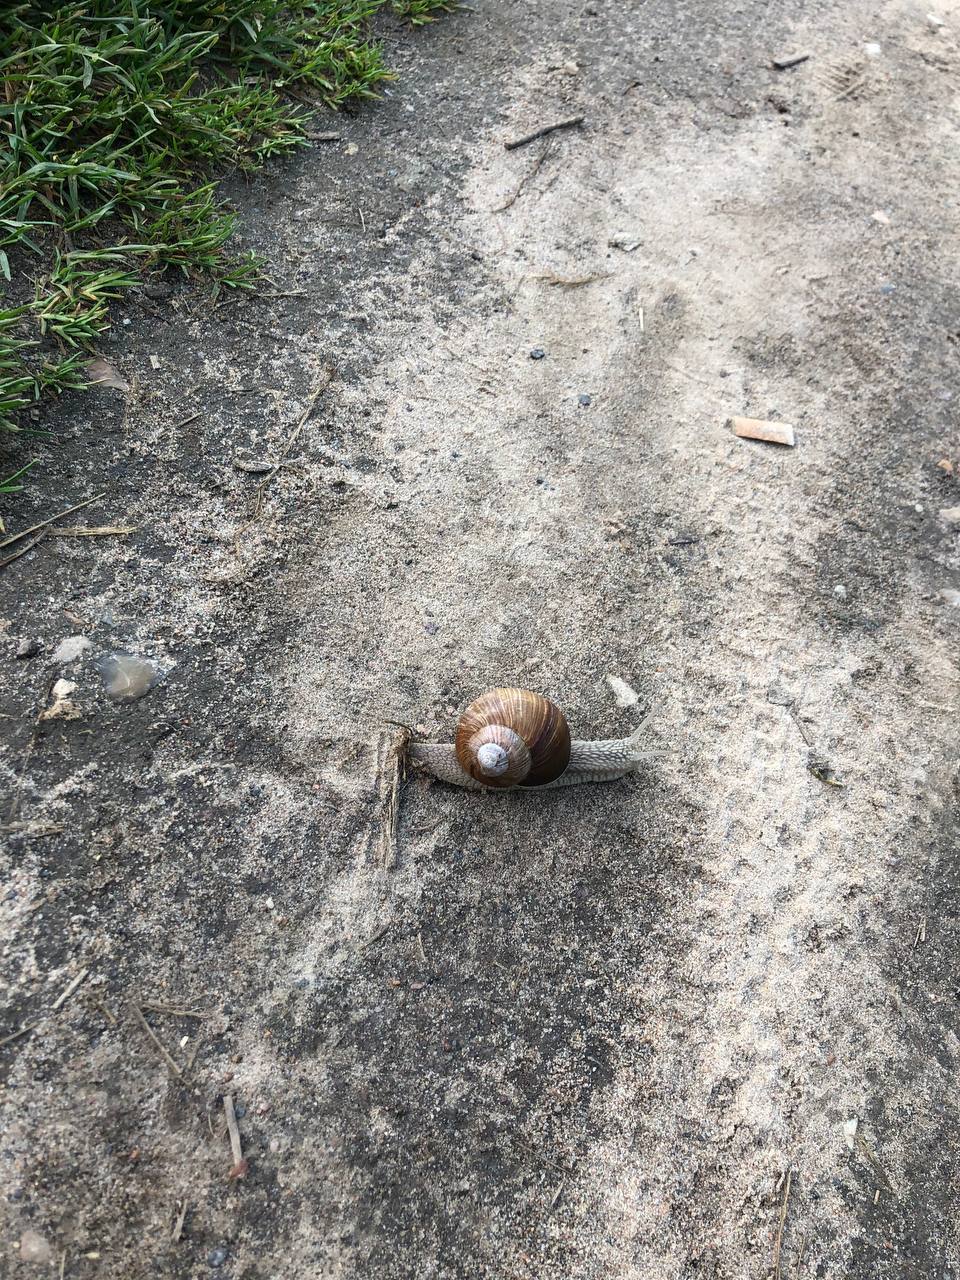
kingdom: Animalia
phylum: Mollusca
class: Gastropoda
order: Stylommatophora
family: Helicidae
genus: Helix
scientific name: Helix pomatia
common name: Roman snail
